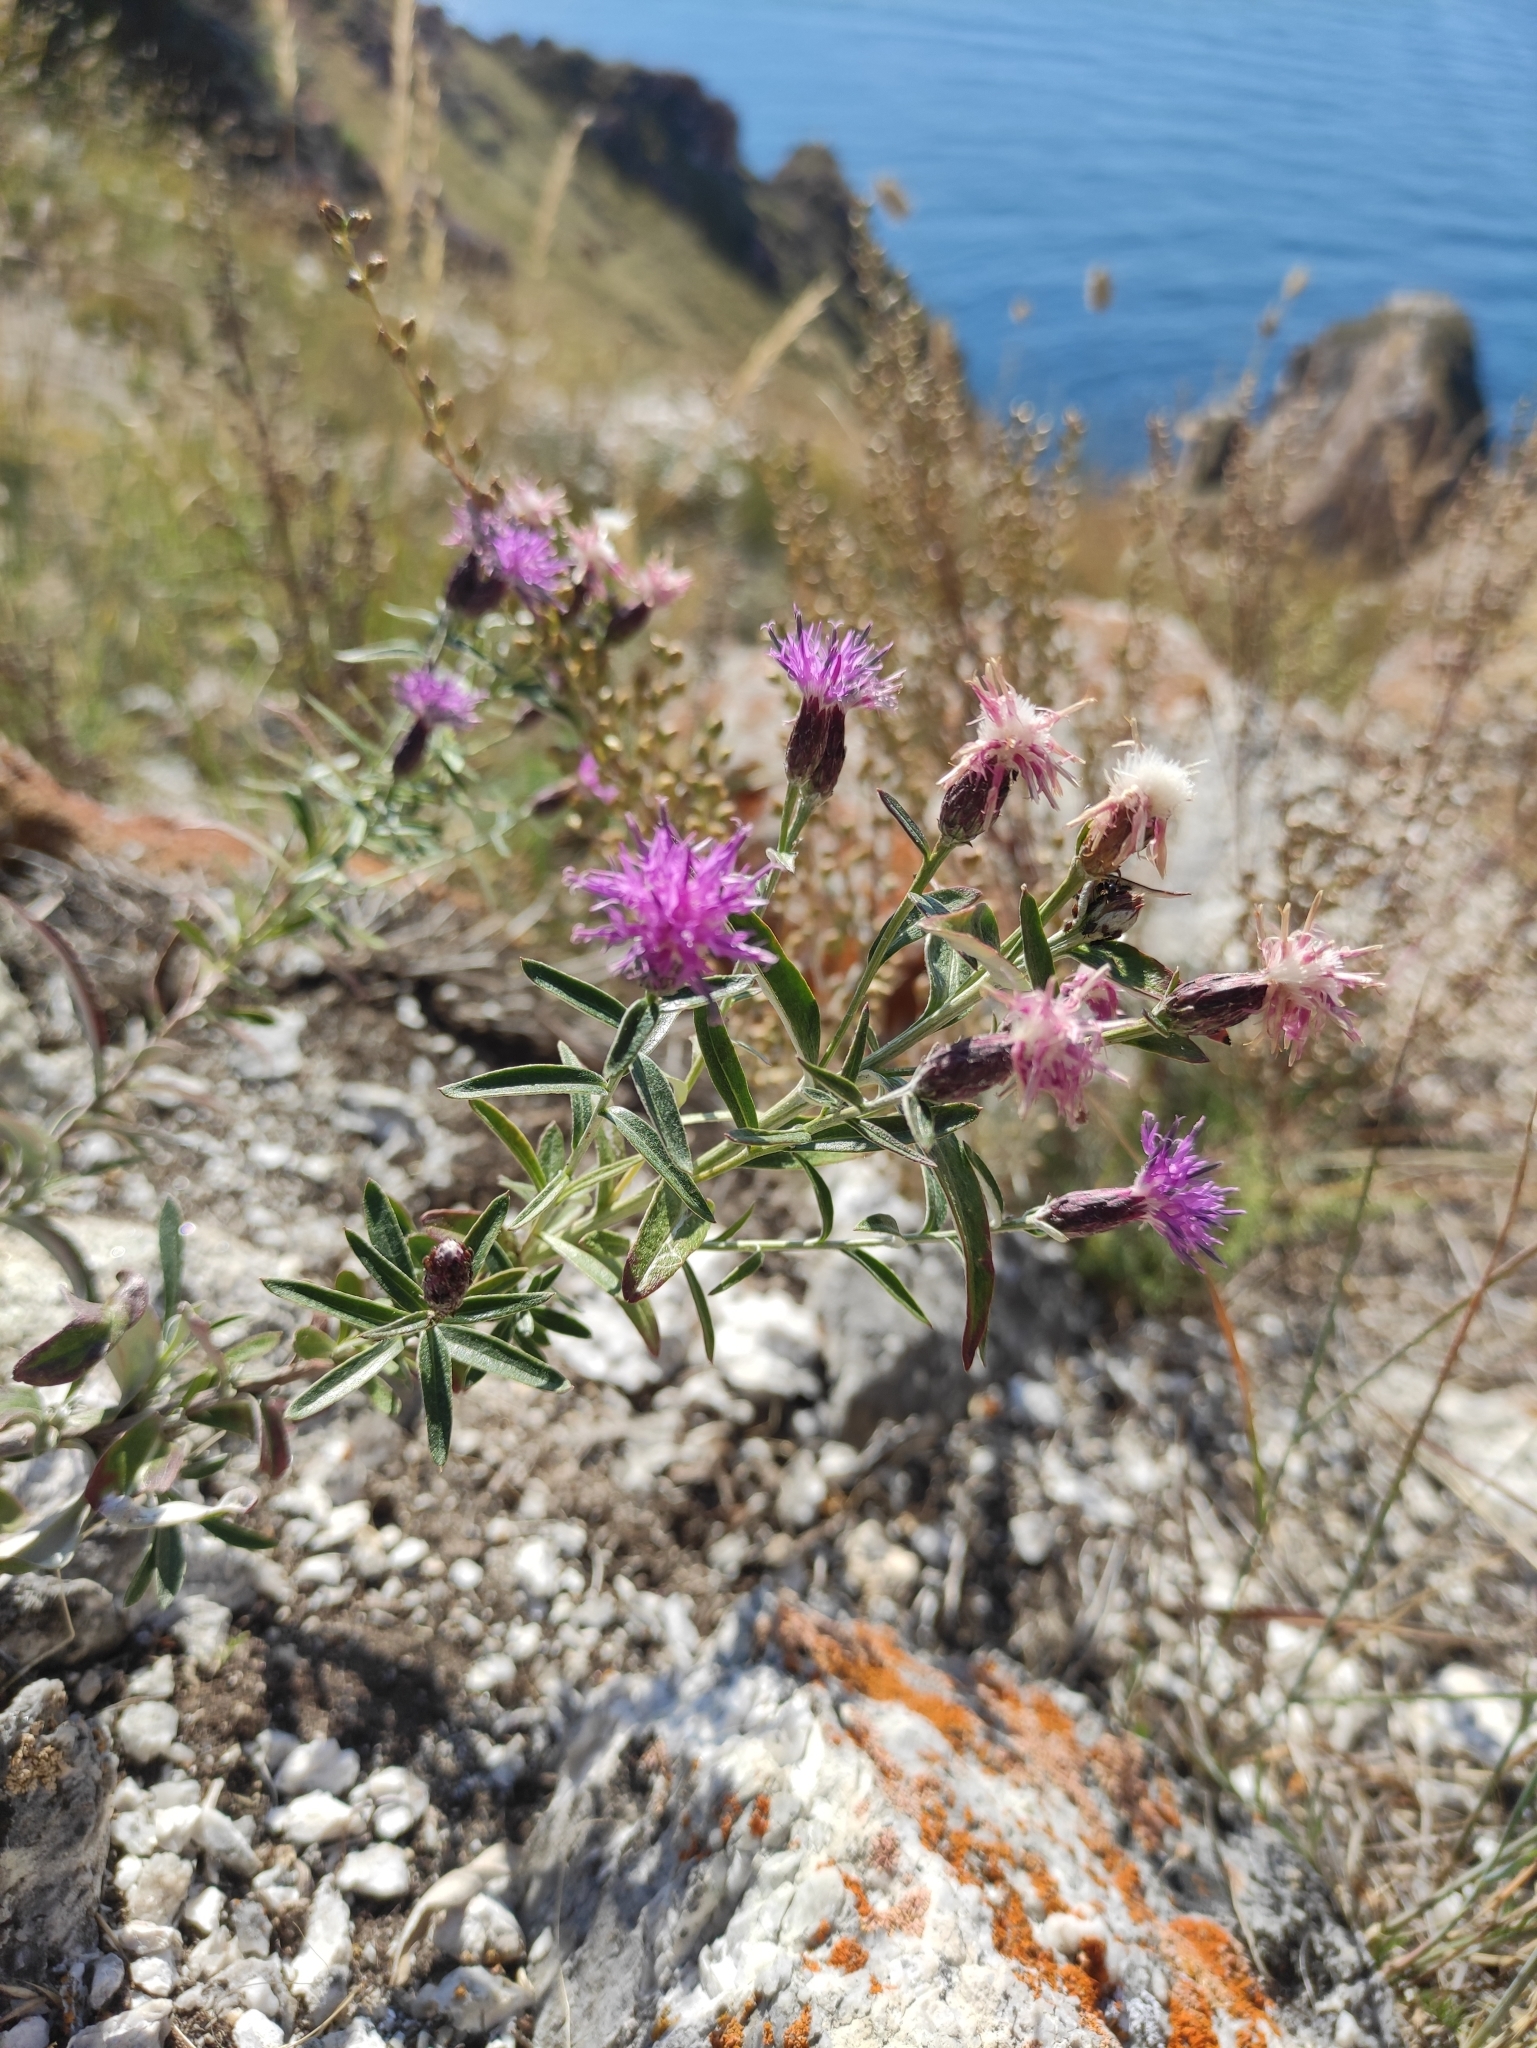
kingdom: Plantae
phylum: Tracheophyta
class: Magnoliopsida
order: Asterales
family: Asteraceae
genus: Saussurea
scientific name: Saussurea salicifolia
